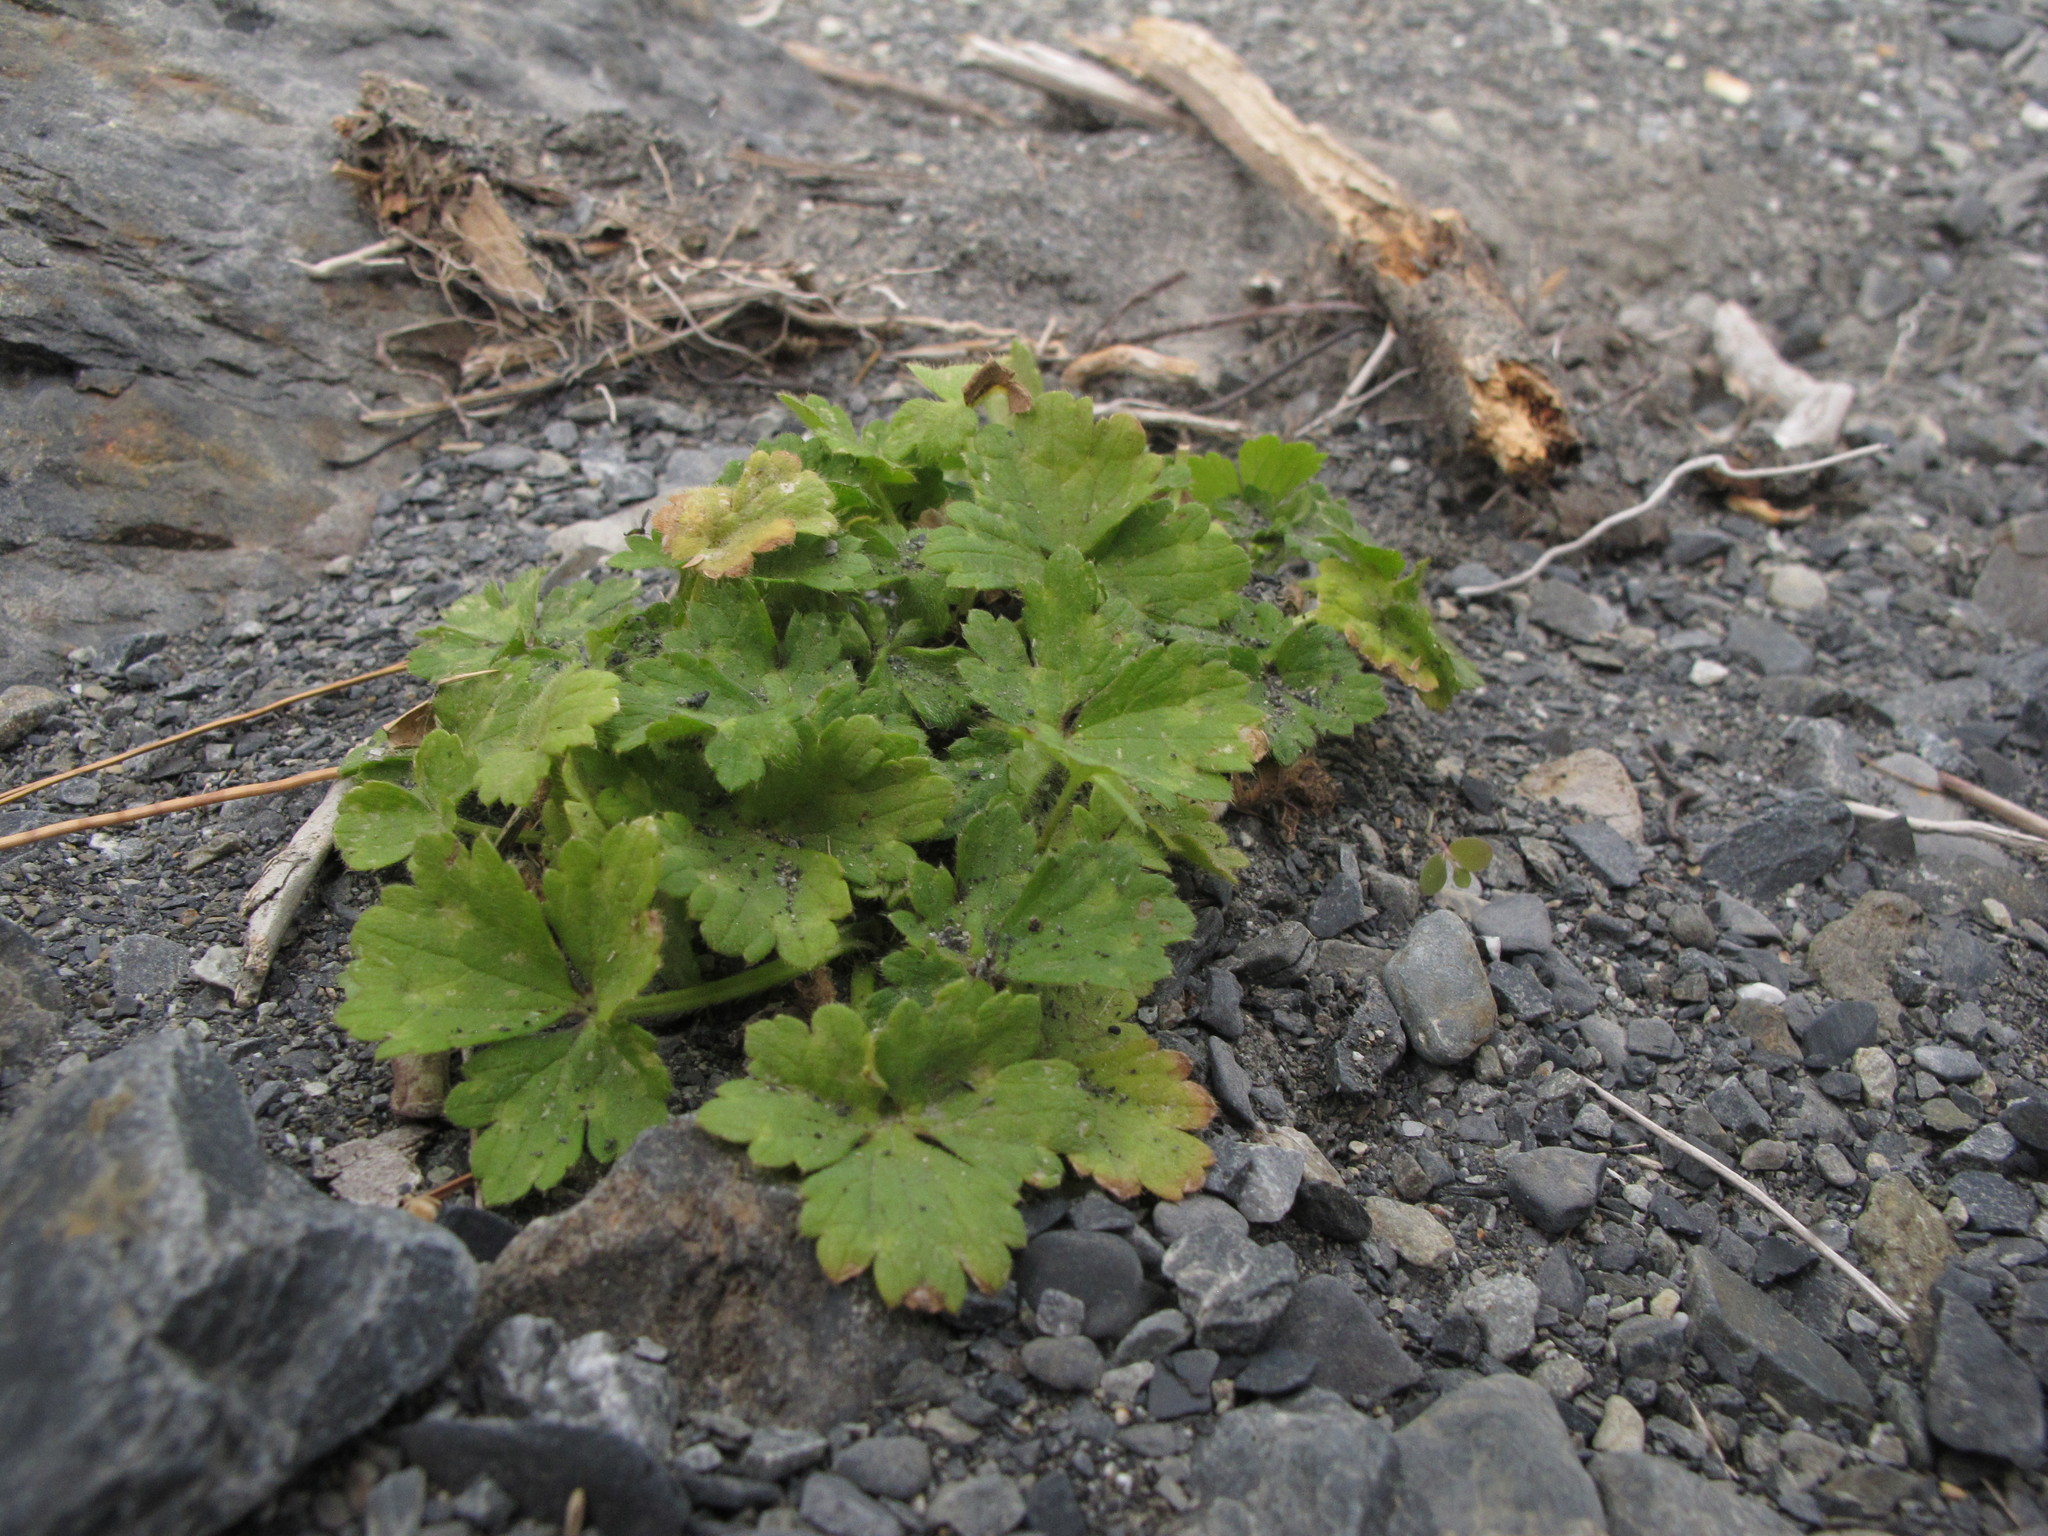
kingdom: Plantae
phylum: Tracheophyta
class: Magnoliopsida
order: Ranunculales
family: Ranunculaceae
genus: Ranunculus
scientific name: Ranunculus repens
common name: Creeping buttercup
